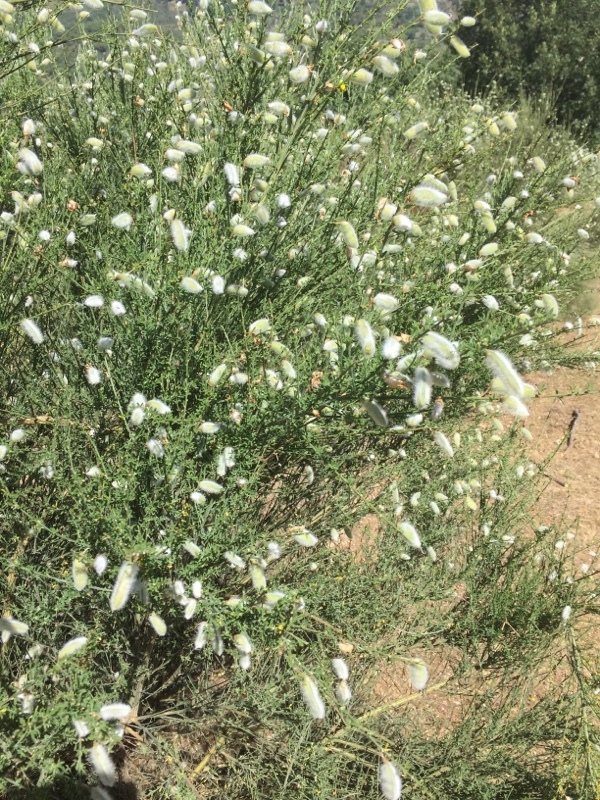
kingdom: Plantae
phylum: Tracheophyta
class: Magnoliopsida
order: Fabales
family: Fabaceae
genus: Cytisus
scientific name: Cytisus striatus
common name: Hairy-fruited broom
